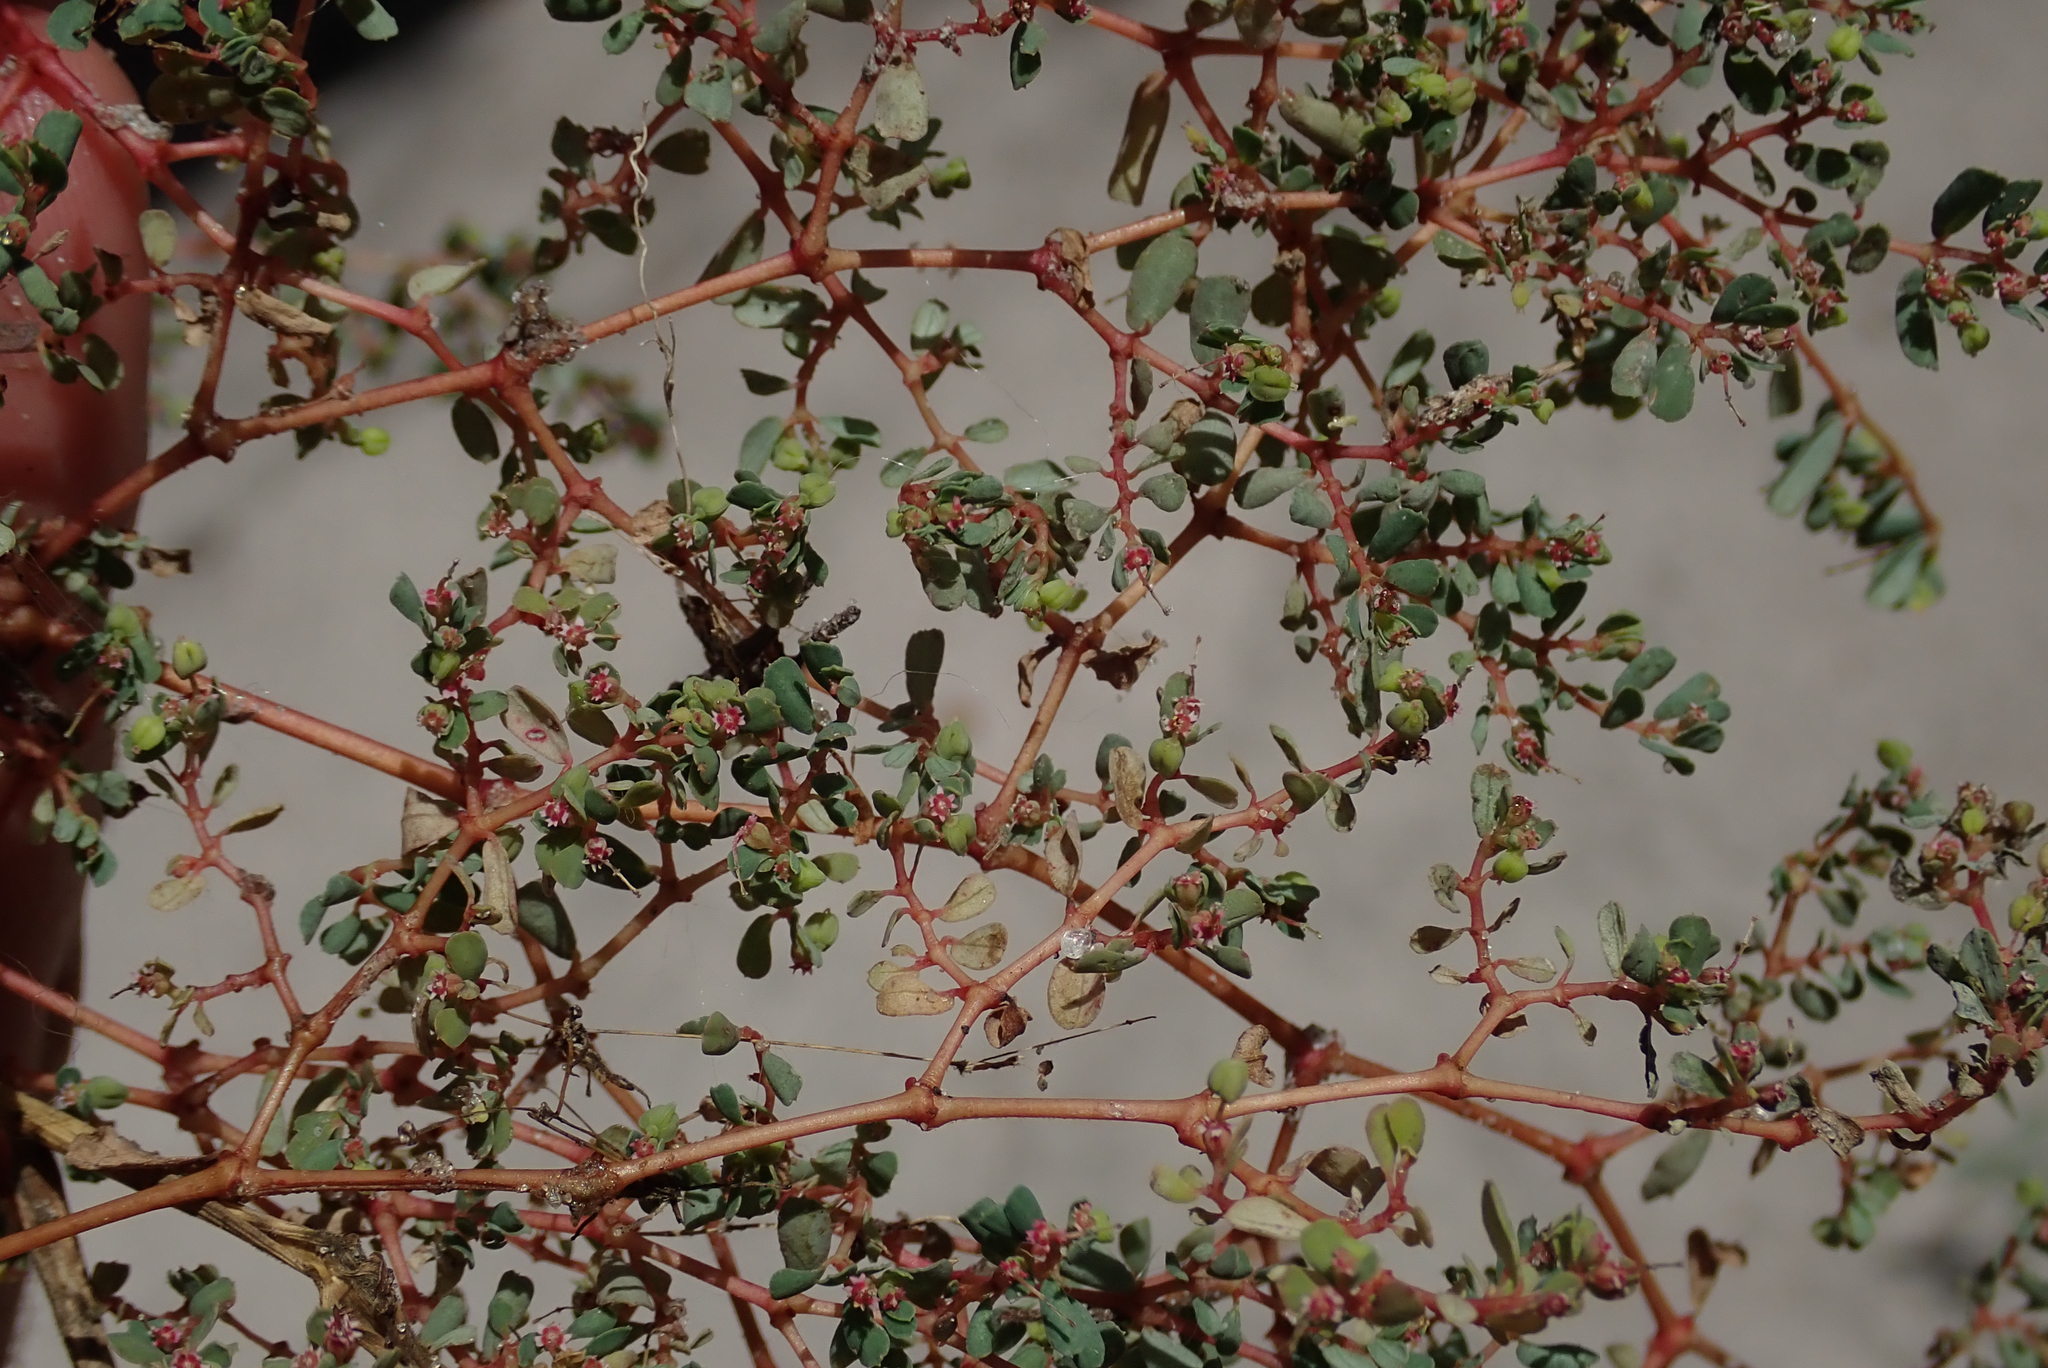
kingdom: Plantae
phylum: Tracheophyta
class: Magnoliopsida
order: Malpighiales
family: Euphorbiaceae
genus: Euphorbia
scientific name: Euphorbia inaequilatera
